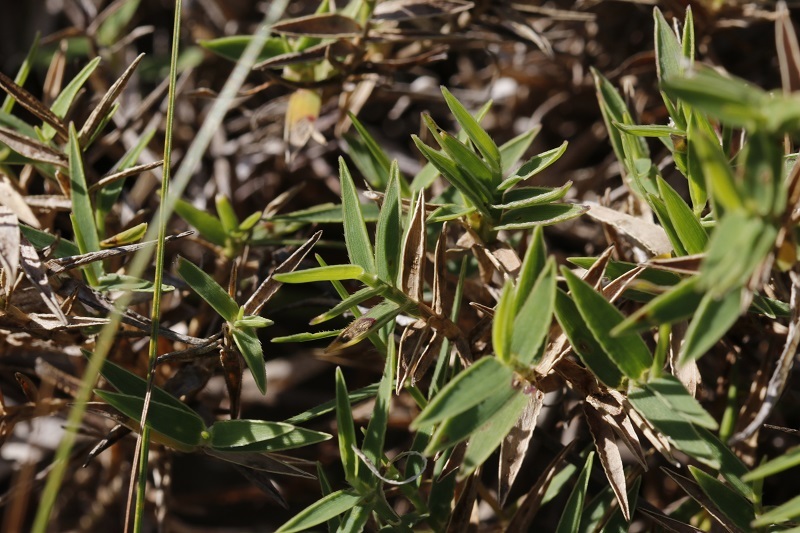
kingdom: Plantae
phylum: Tracheophyta
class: Liliopsida
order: Poales
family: Poaceae
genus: Urochloa
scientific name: Urochloa serrata
